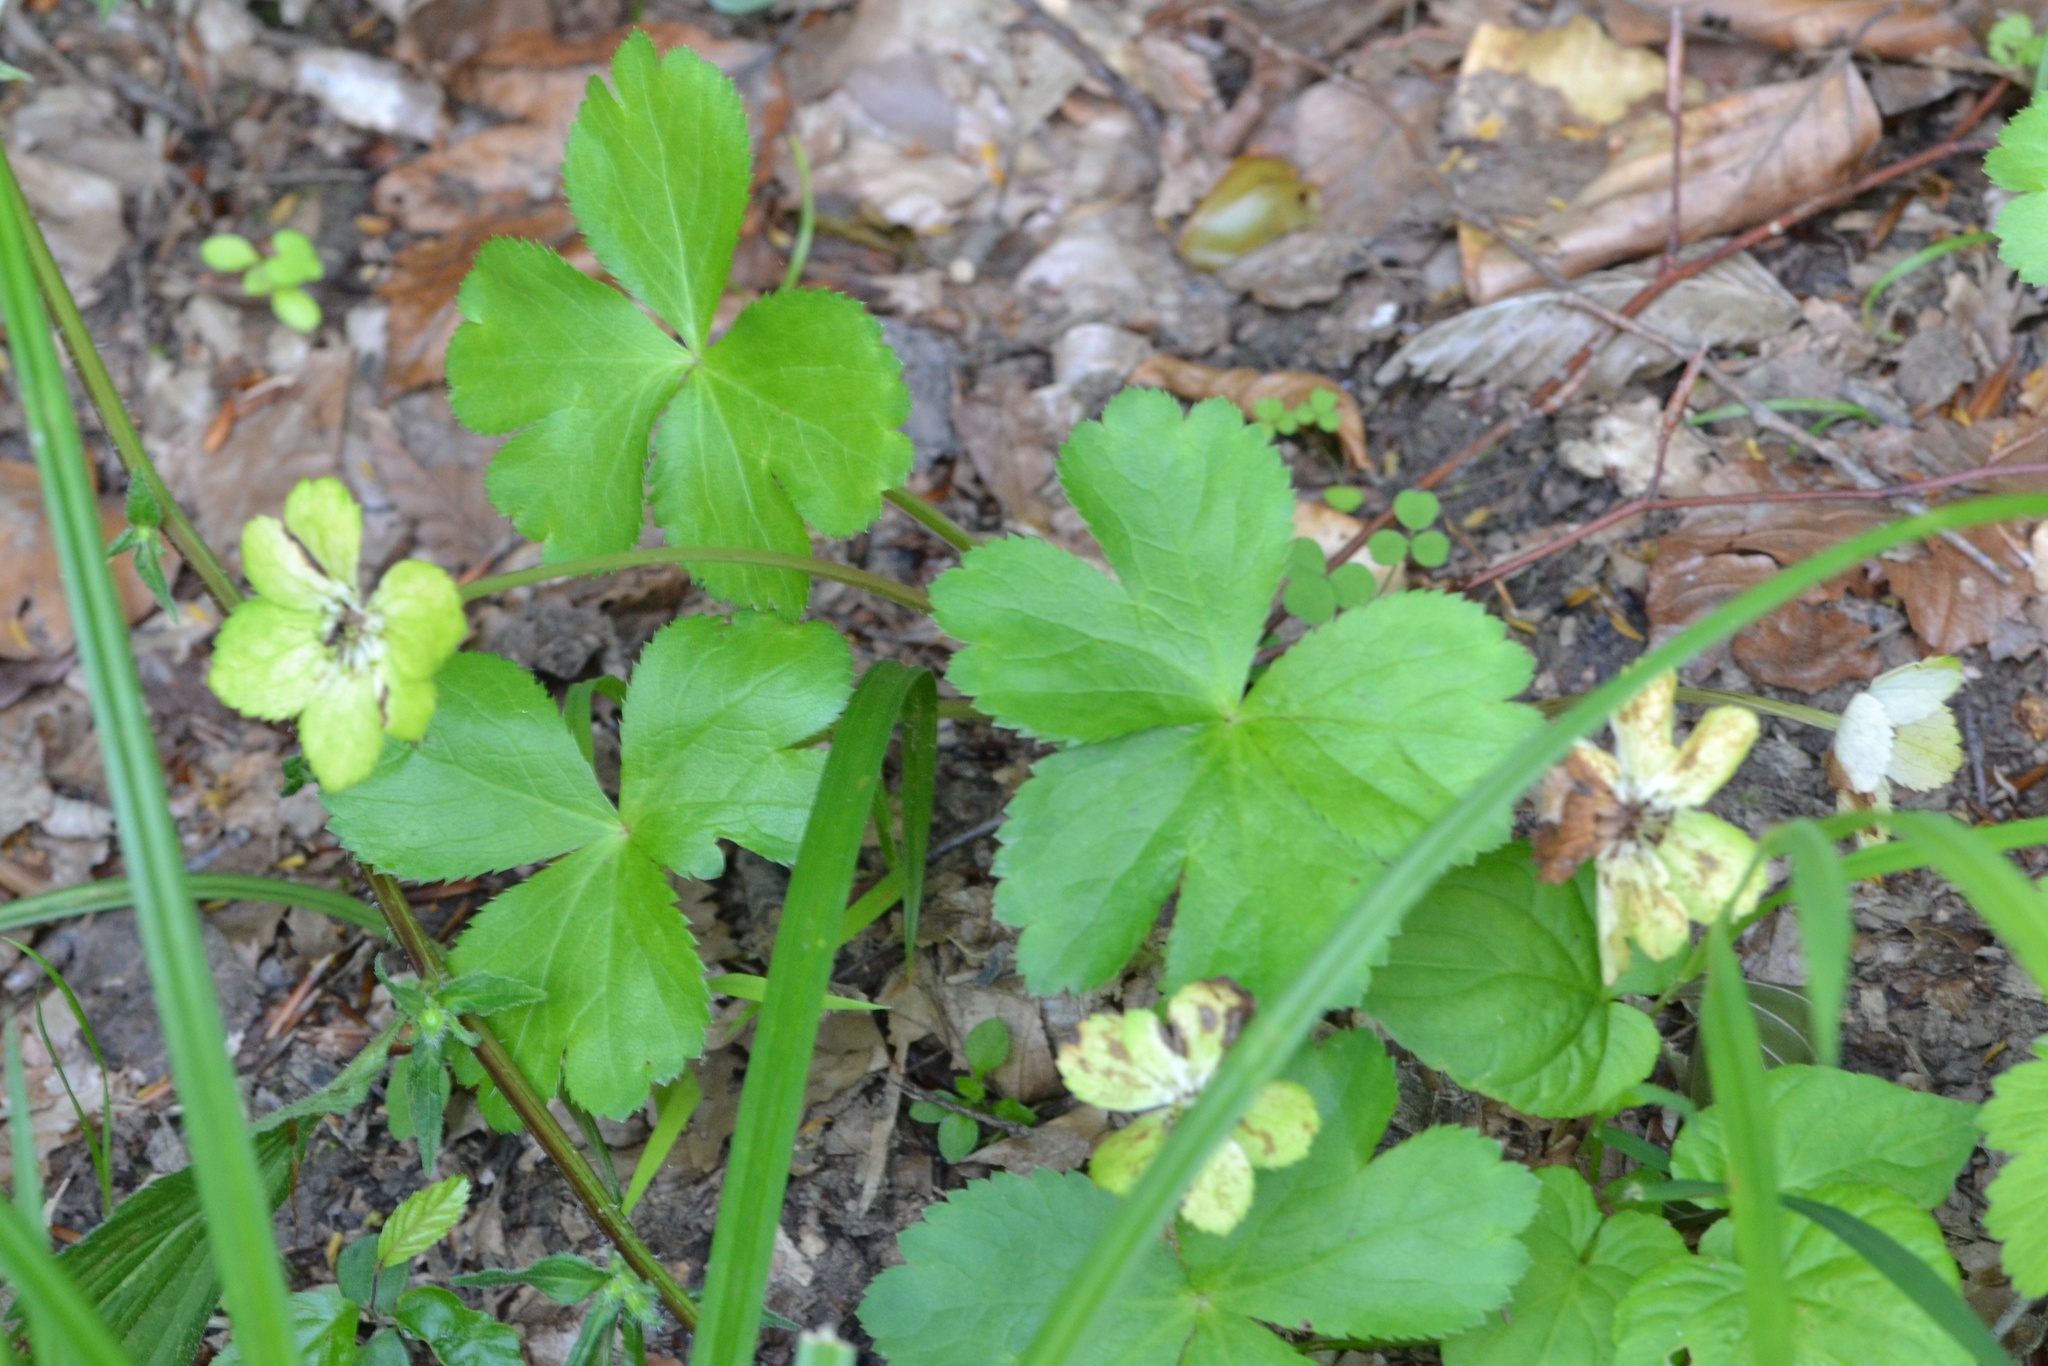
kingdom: Plantae
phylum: Tracheophyta
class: Magnoliopsida
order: Apiales
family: Apiaceae
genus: Sanicula
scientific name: Sanicula epipactis
